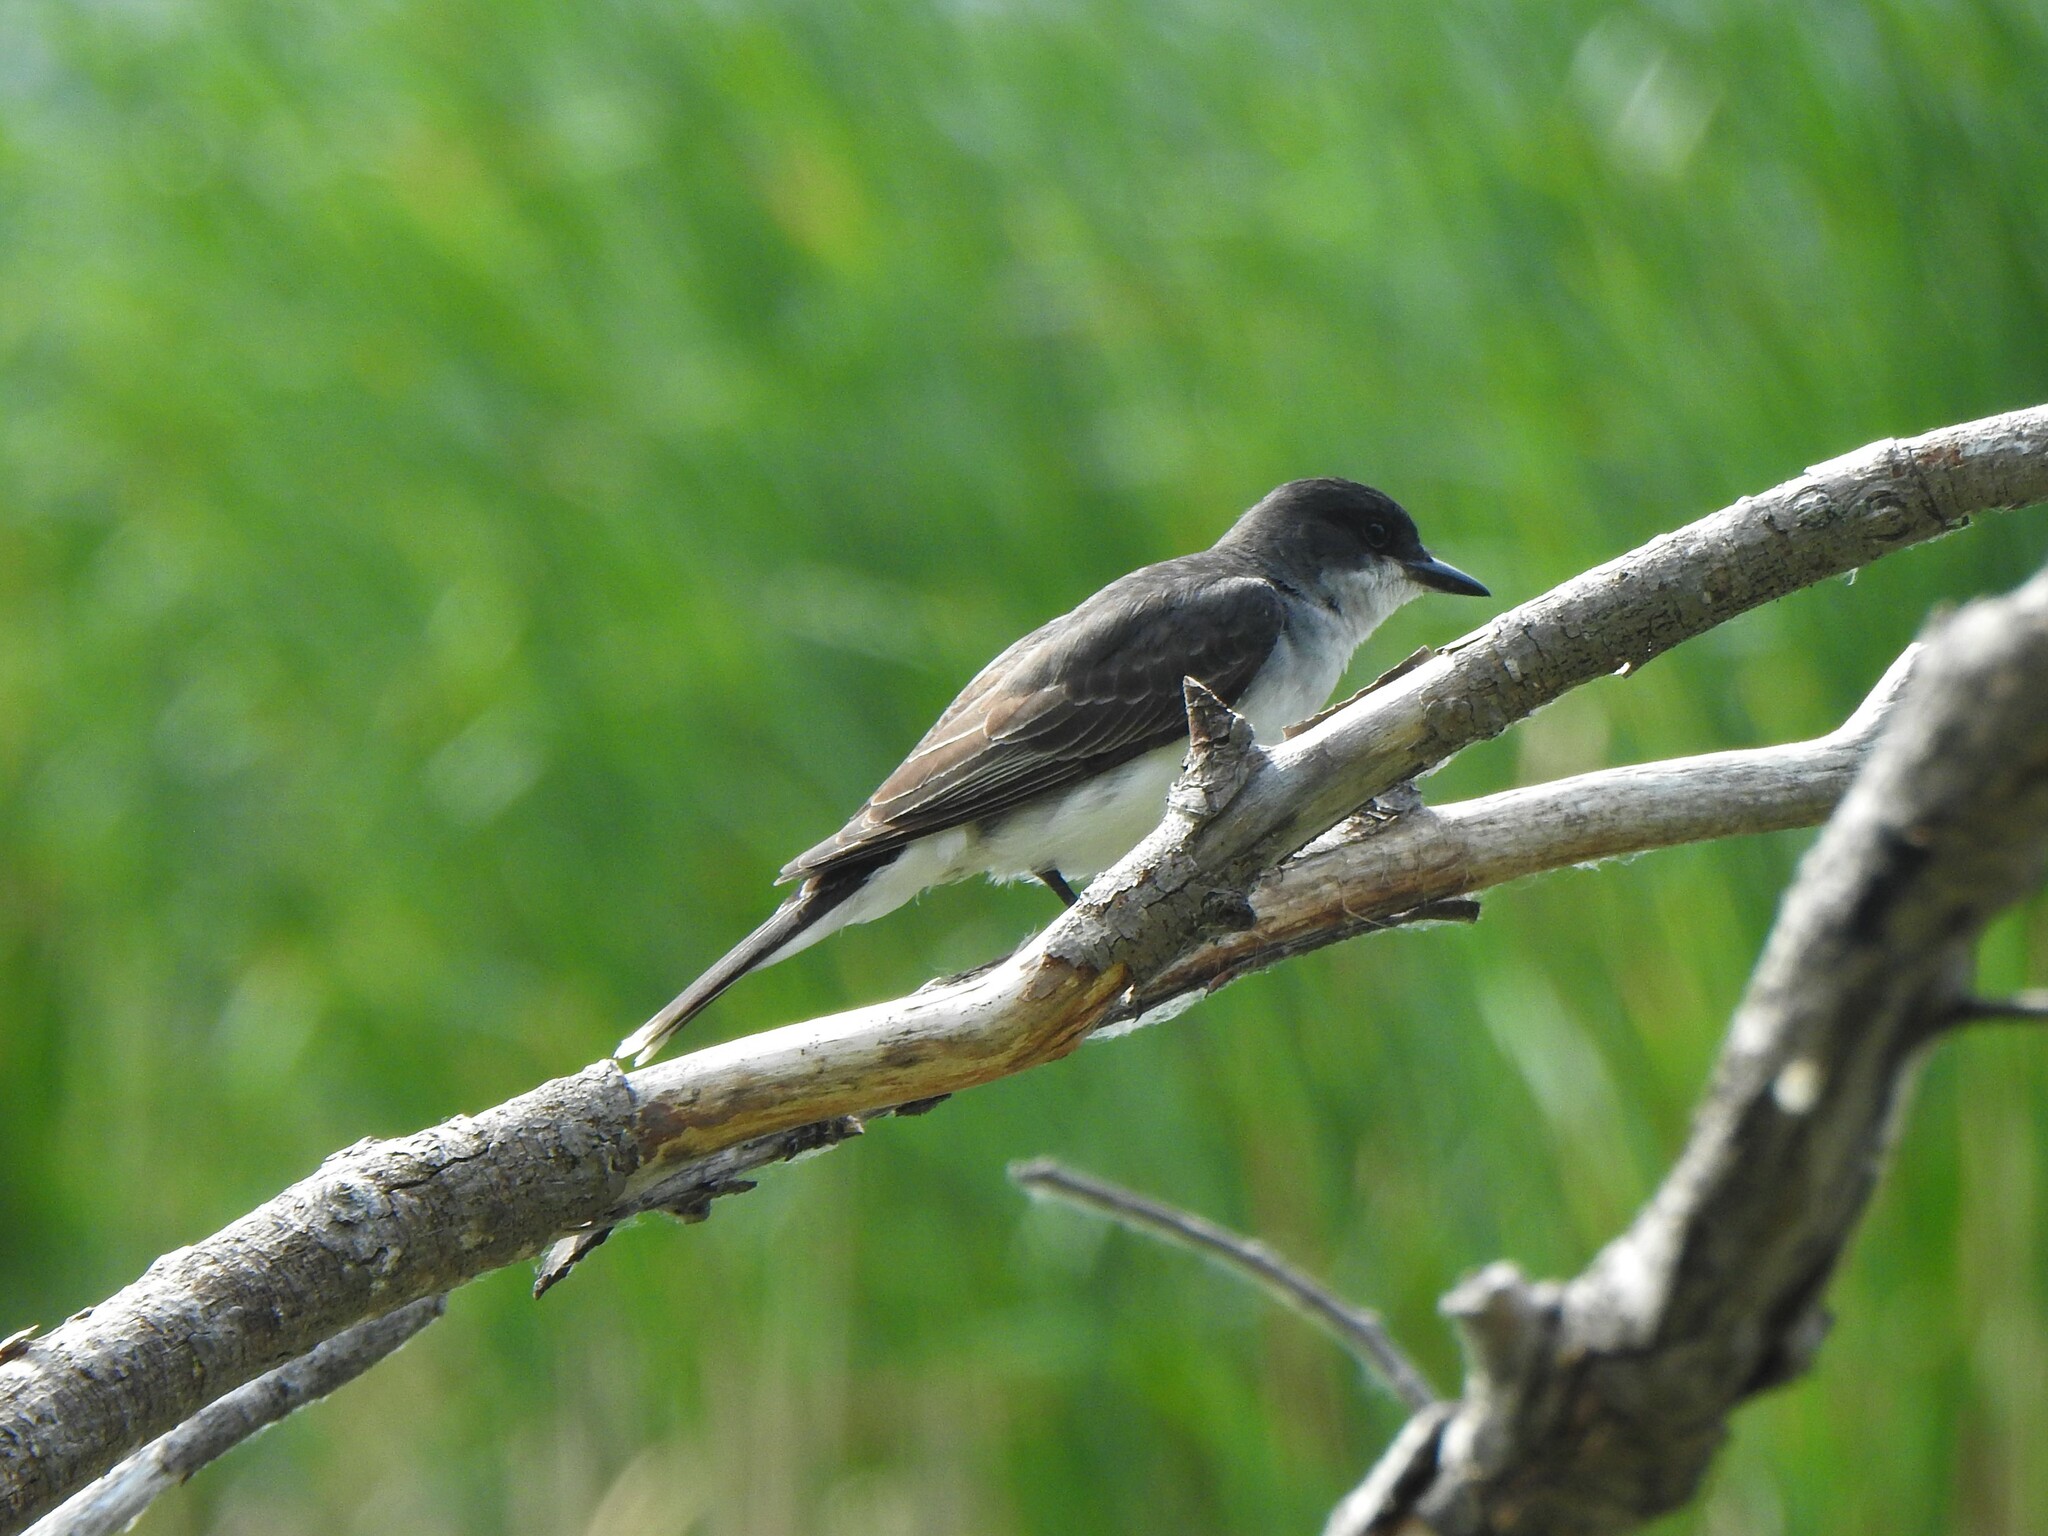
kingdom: Animalia
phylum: Chordata
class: Aves
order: Passeriformes
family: Tyrannidae
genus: Tyrannus
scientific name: Tyrannus tyrannus
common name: Eastern kingbird
